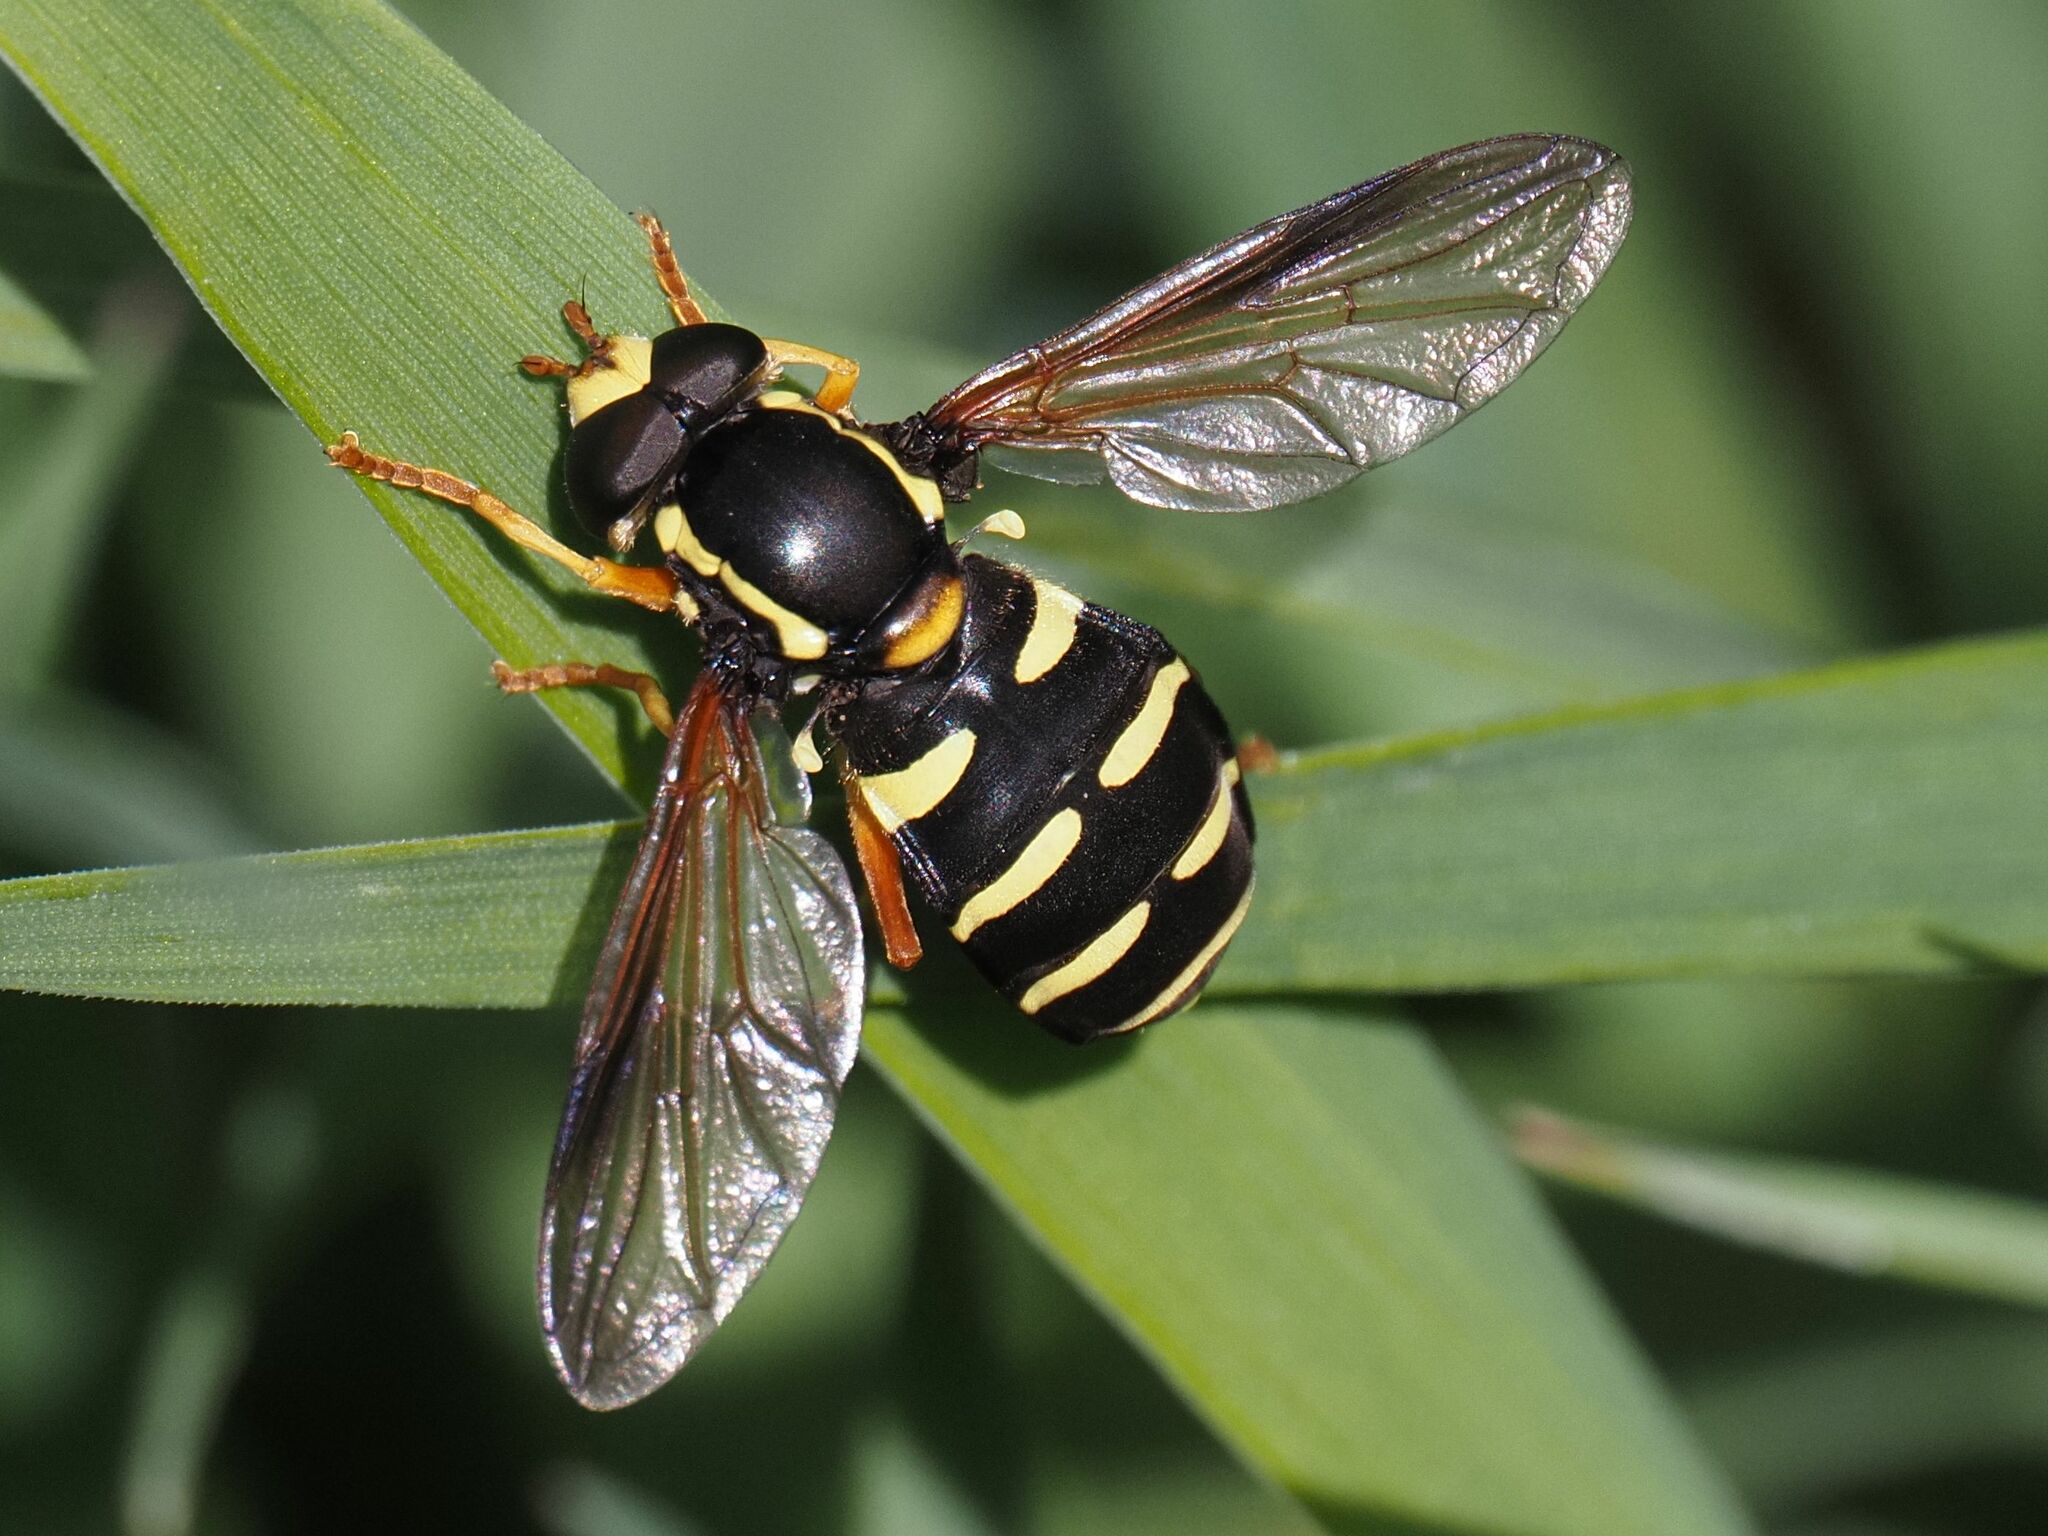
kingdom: Animalia
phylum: Arthropoda
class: Insecta
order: Diptera
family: Syrphidae
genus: Philhelius
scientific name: Philhelius citrofasciata
